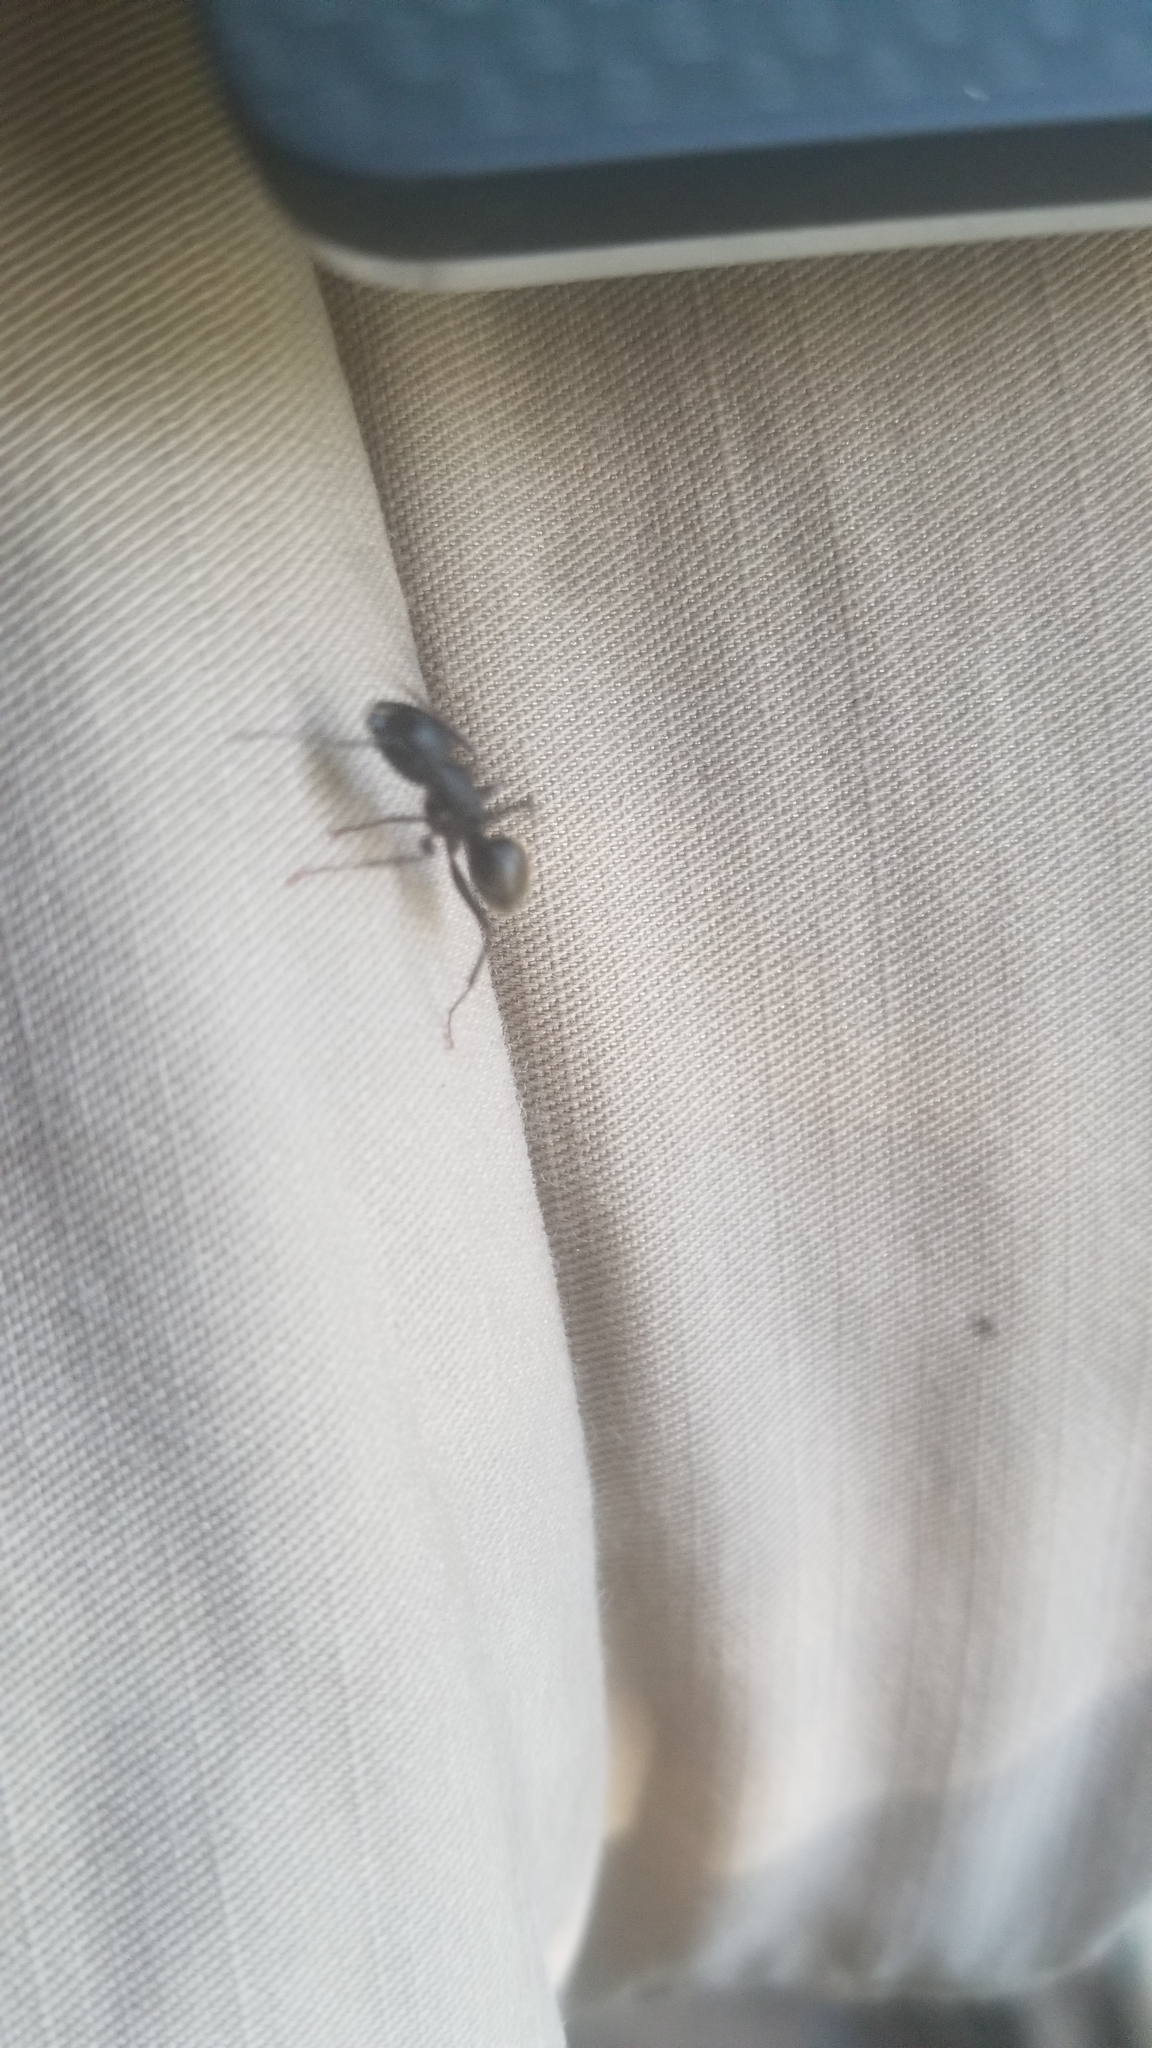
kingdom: Animalia
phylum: Arthropoda
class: Insecta
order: Hymenoptera
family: Formicidae
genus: Camponotus
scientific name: Camponotus pennsylvanicus
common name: Black carpenter ant
